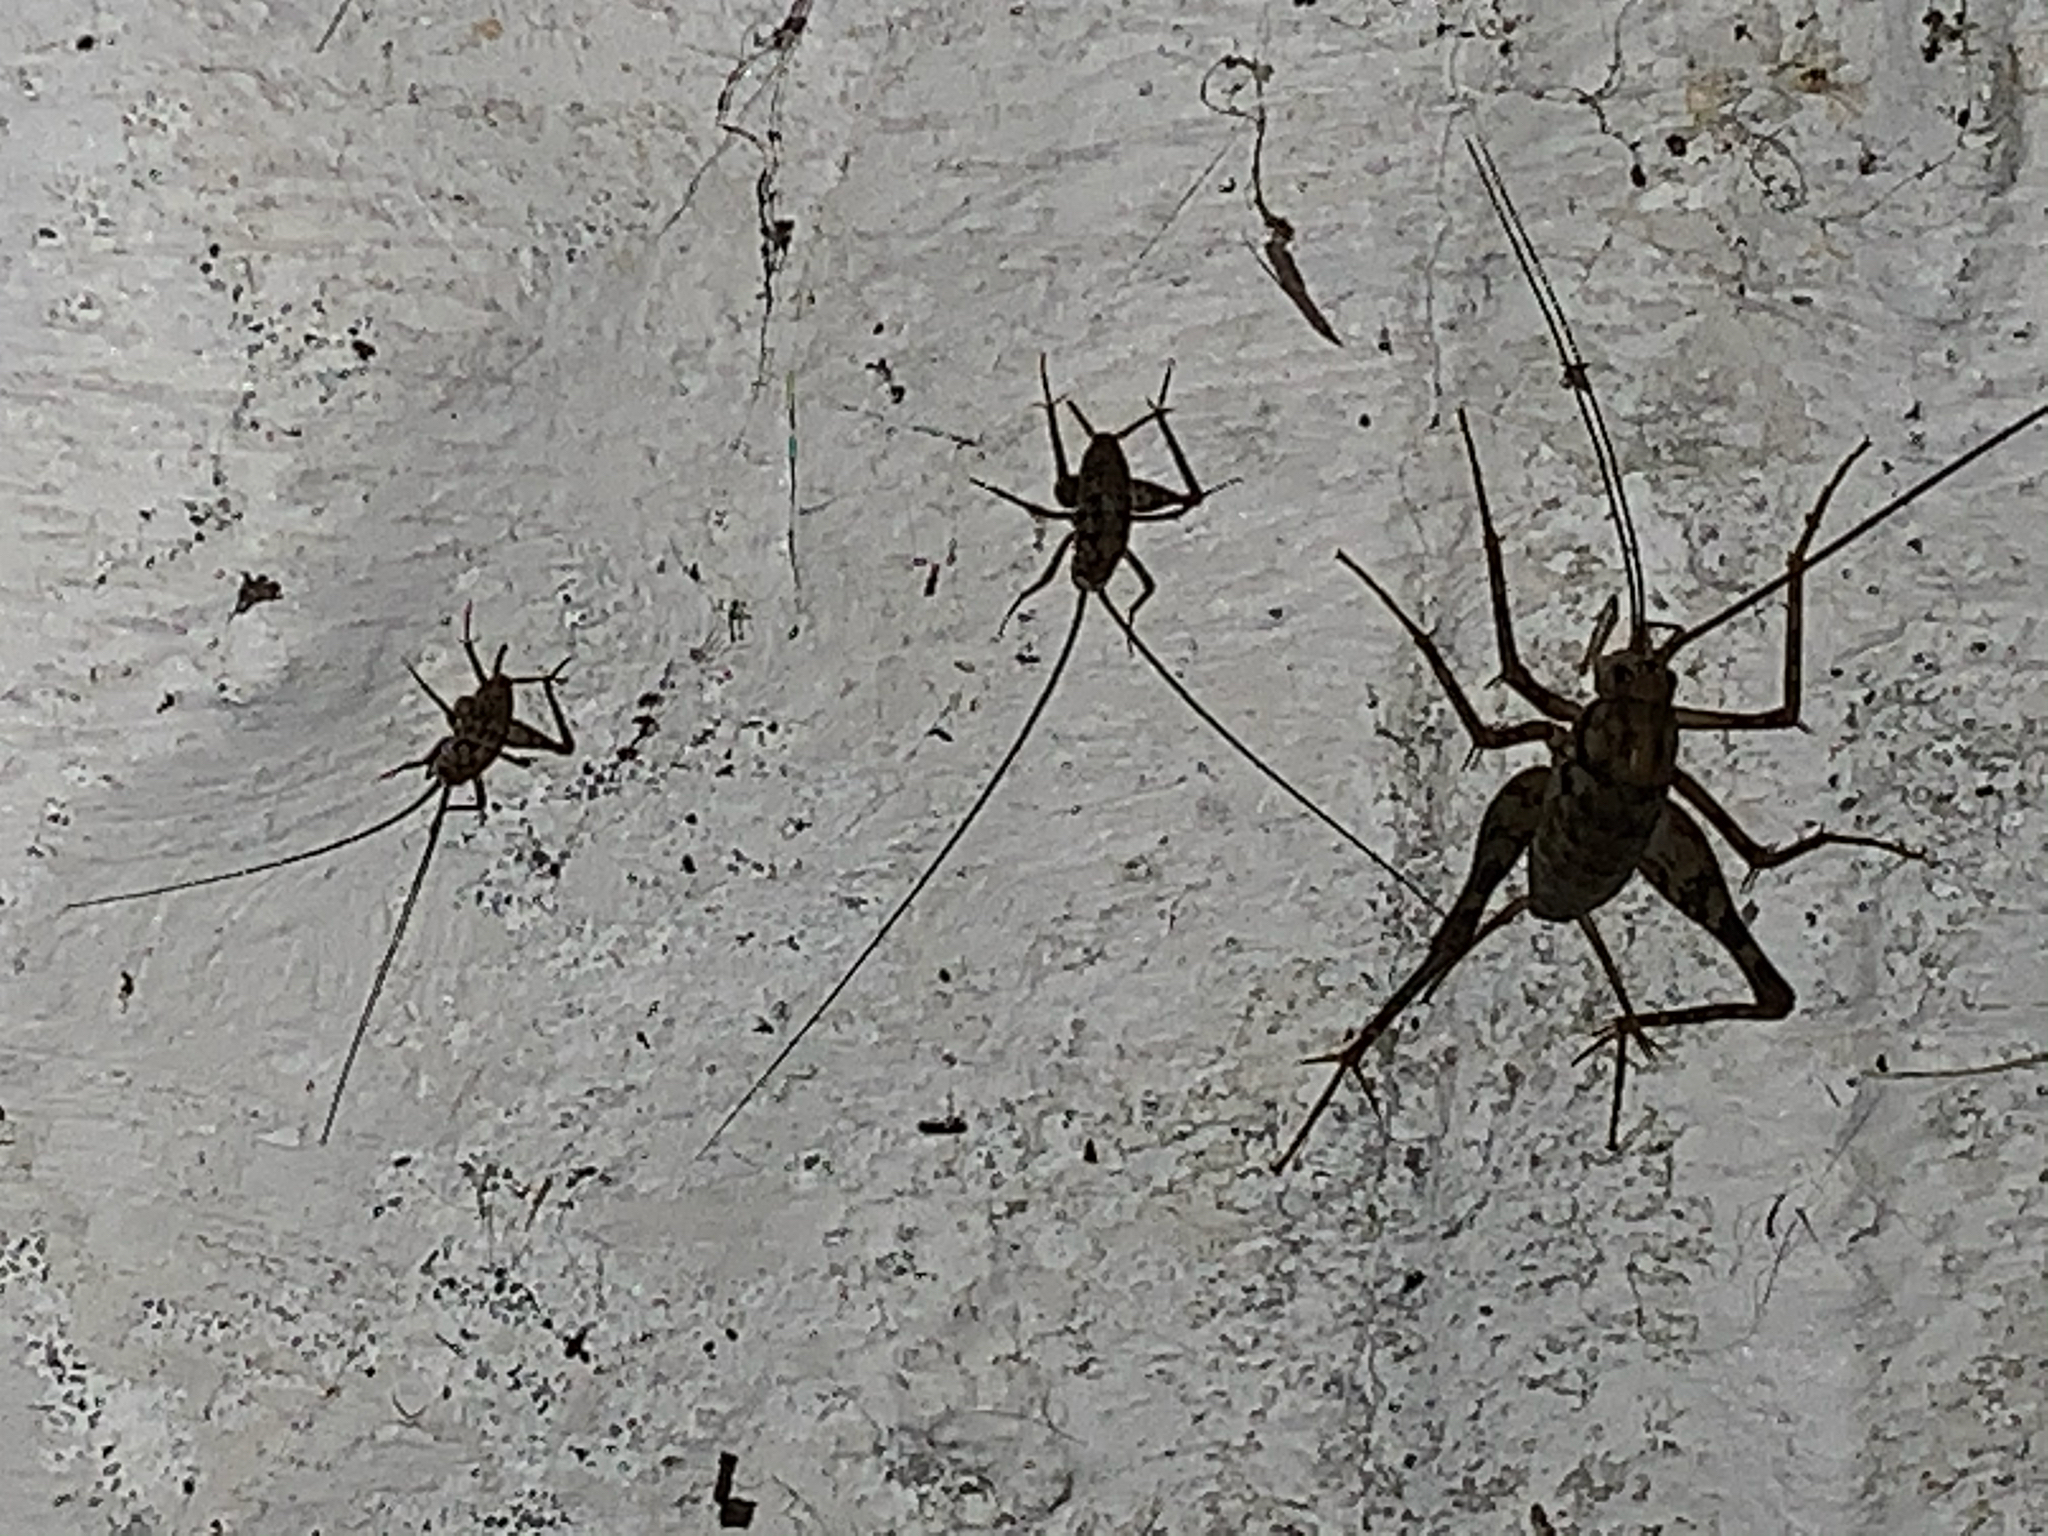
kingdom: Animalia
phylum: Arthropoda
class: Insecta
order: Orthoptera
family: Rhaphidophoridae
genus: Tachycines
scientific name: Tachycines asynamorus
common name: Greenhouse camel cricket
